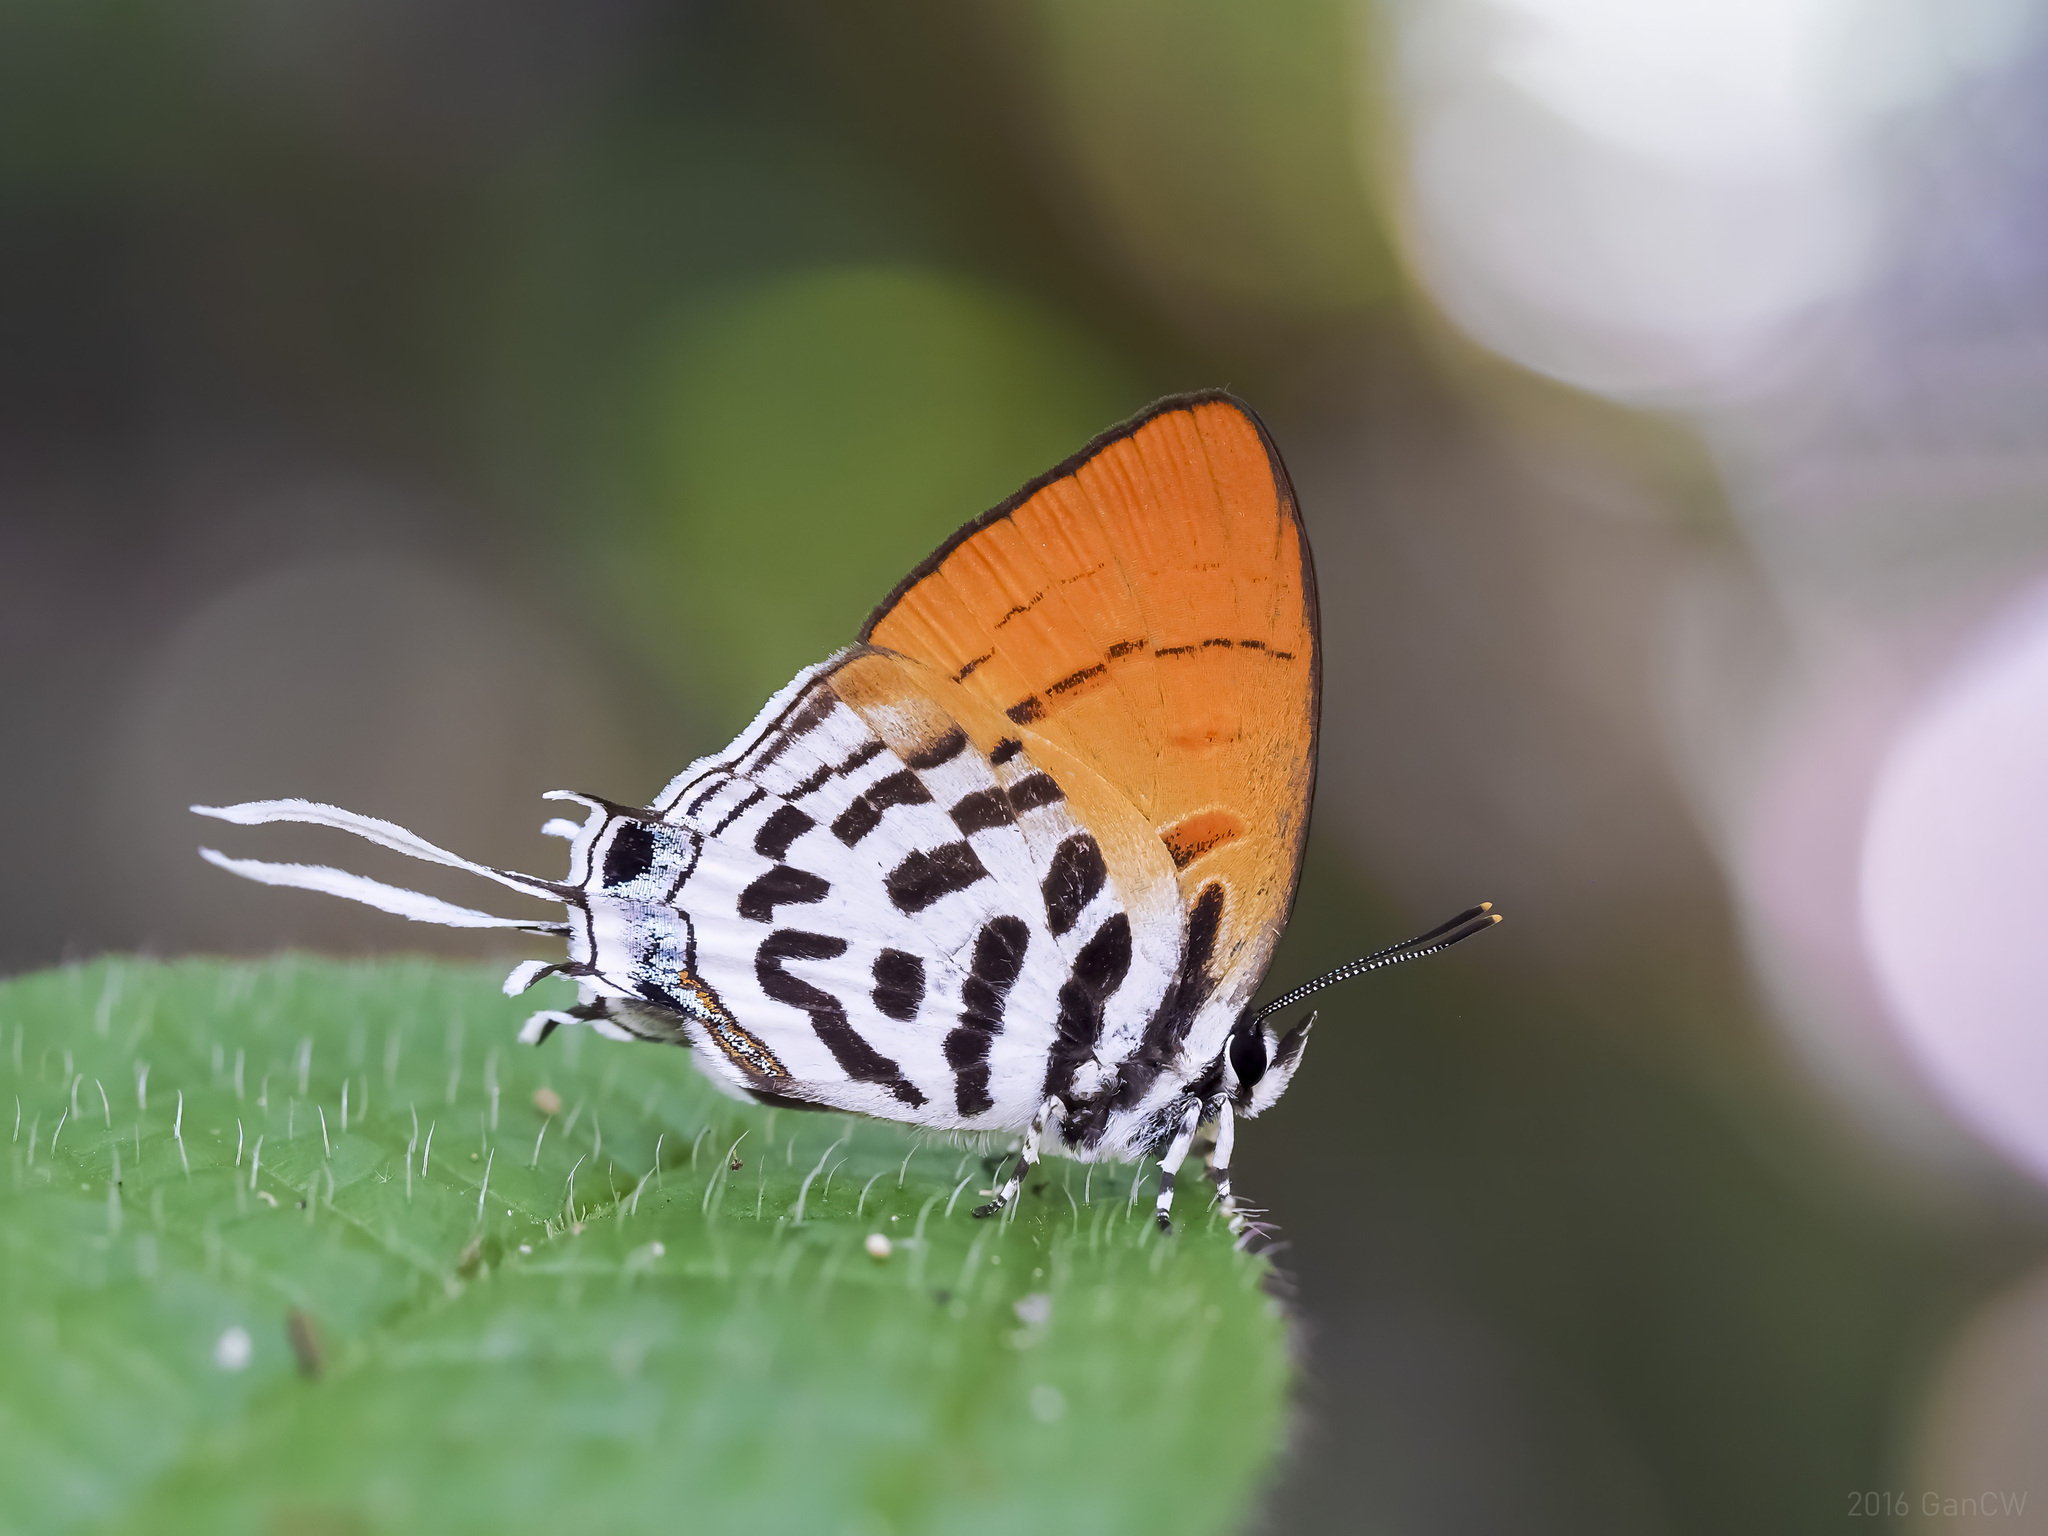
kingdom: Animalia
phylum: Arthropoda
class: Insecta
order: Lepidoptera
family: Lycaenidae
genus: Drupadia
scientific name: Drupadia ravindra
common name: Common posy
